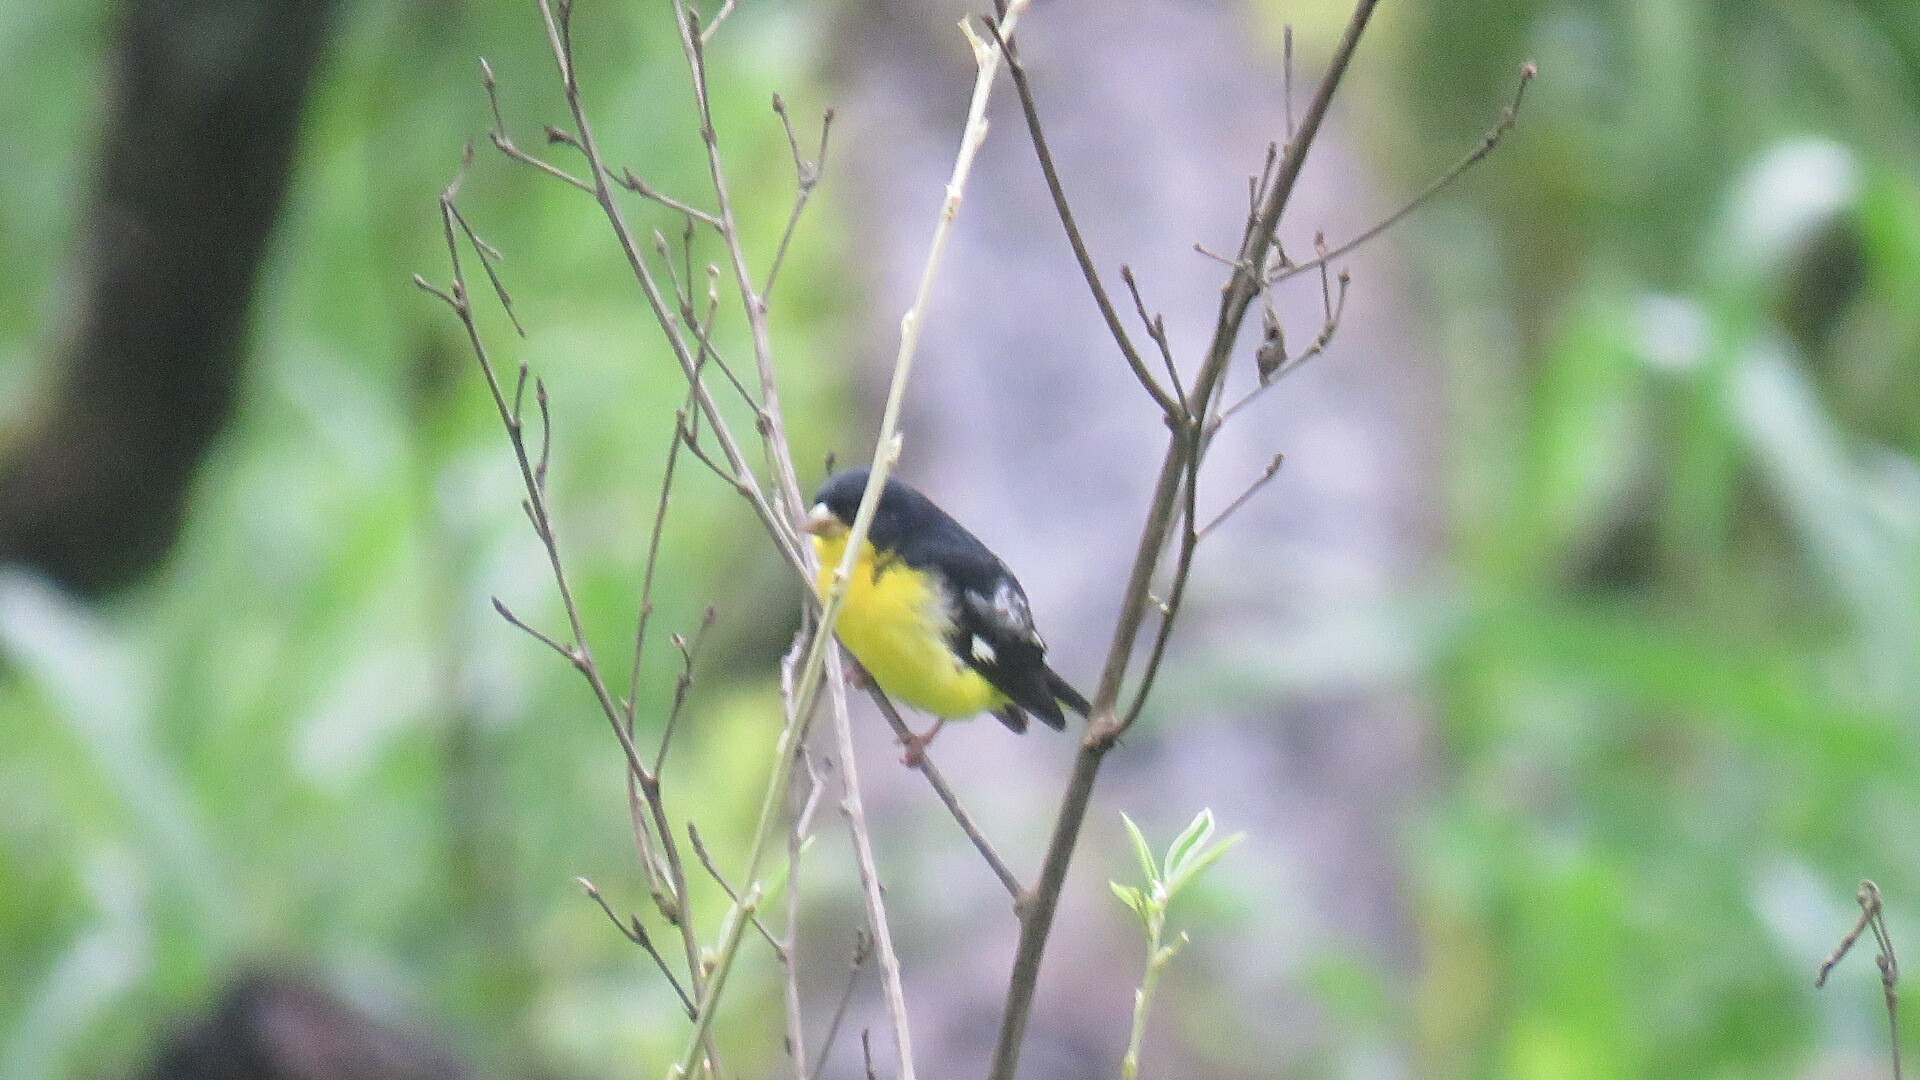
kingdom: Animalia
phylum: Chordata
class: Aves
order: Passeriformes
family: Fringillidae
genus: Spinus
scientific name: Spinus psaltria
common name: Lesser goldfinch
